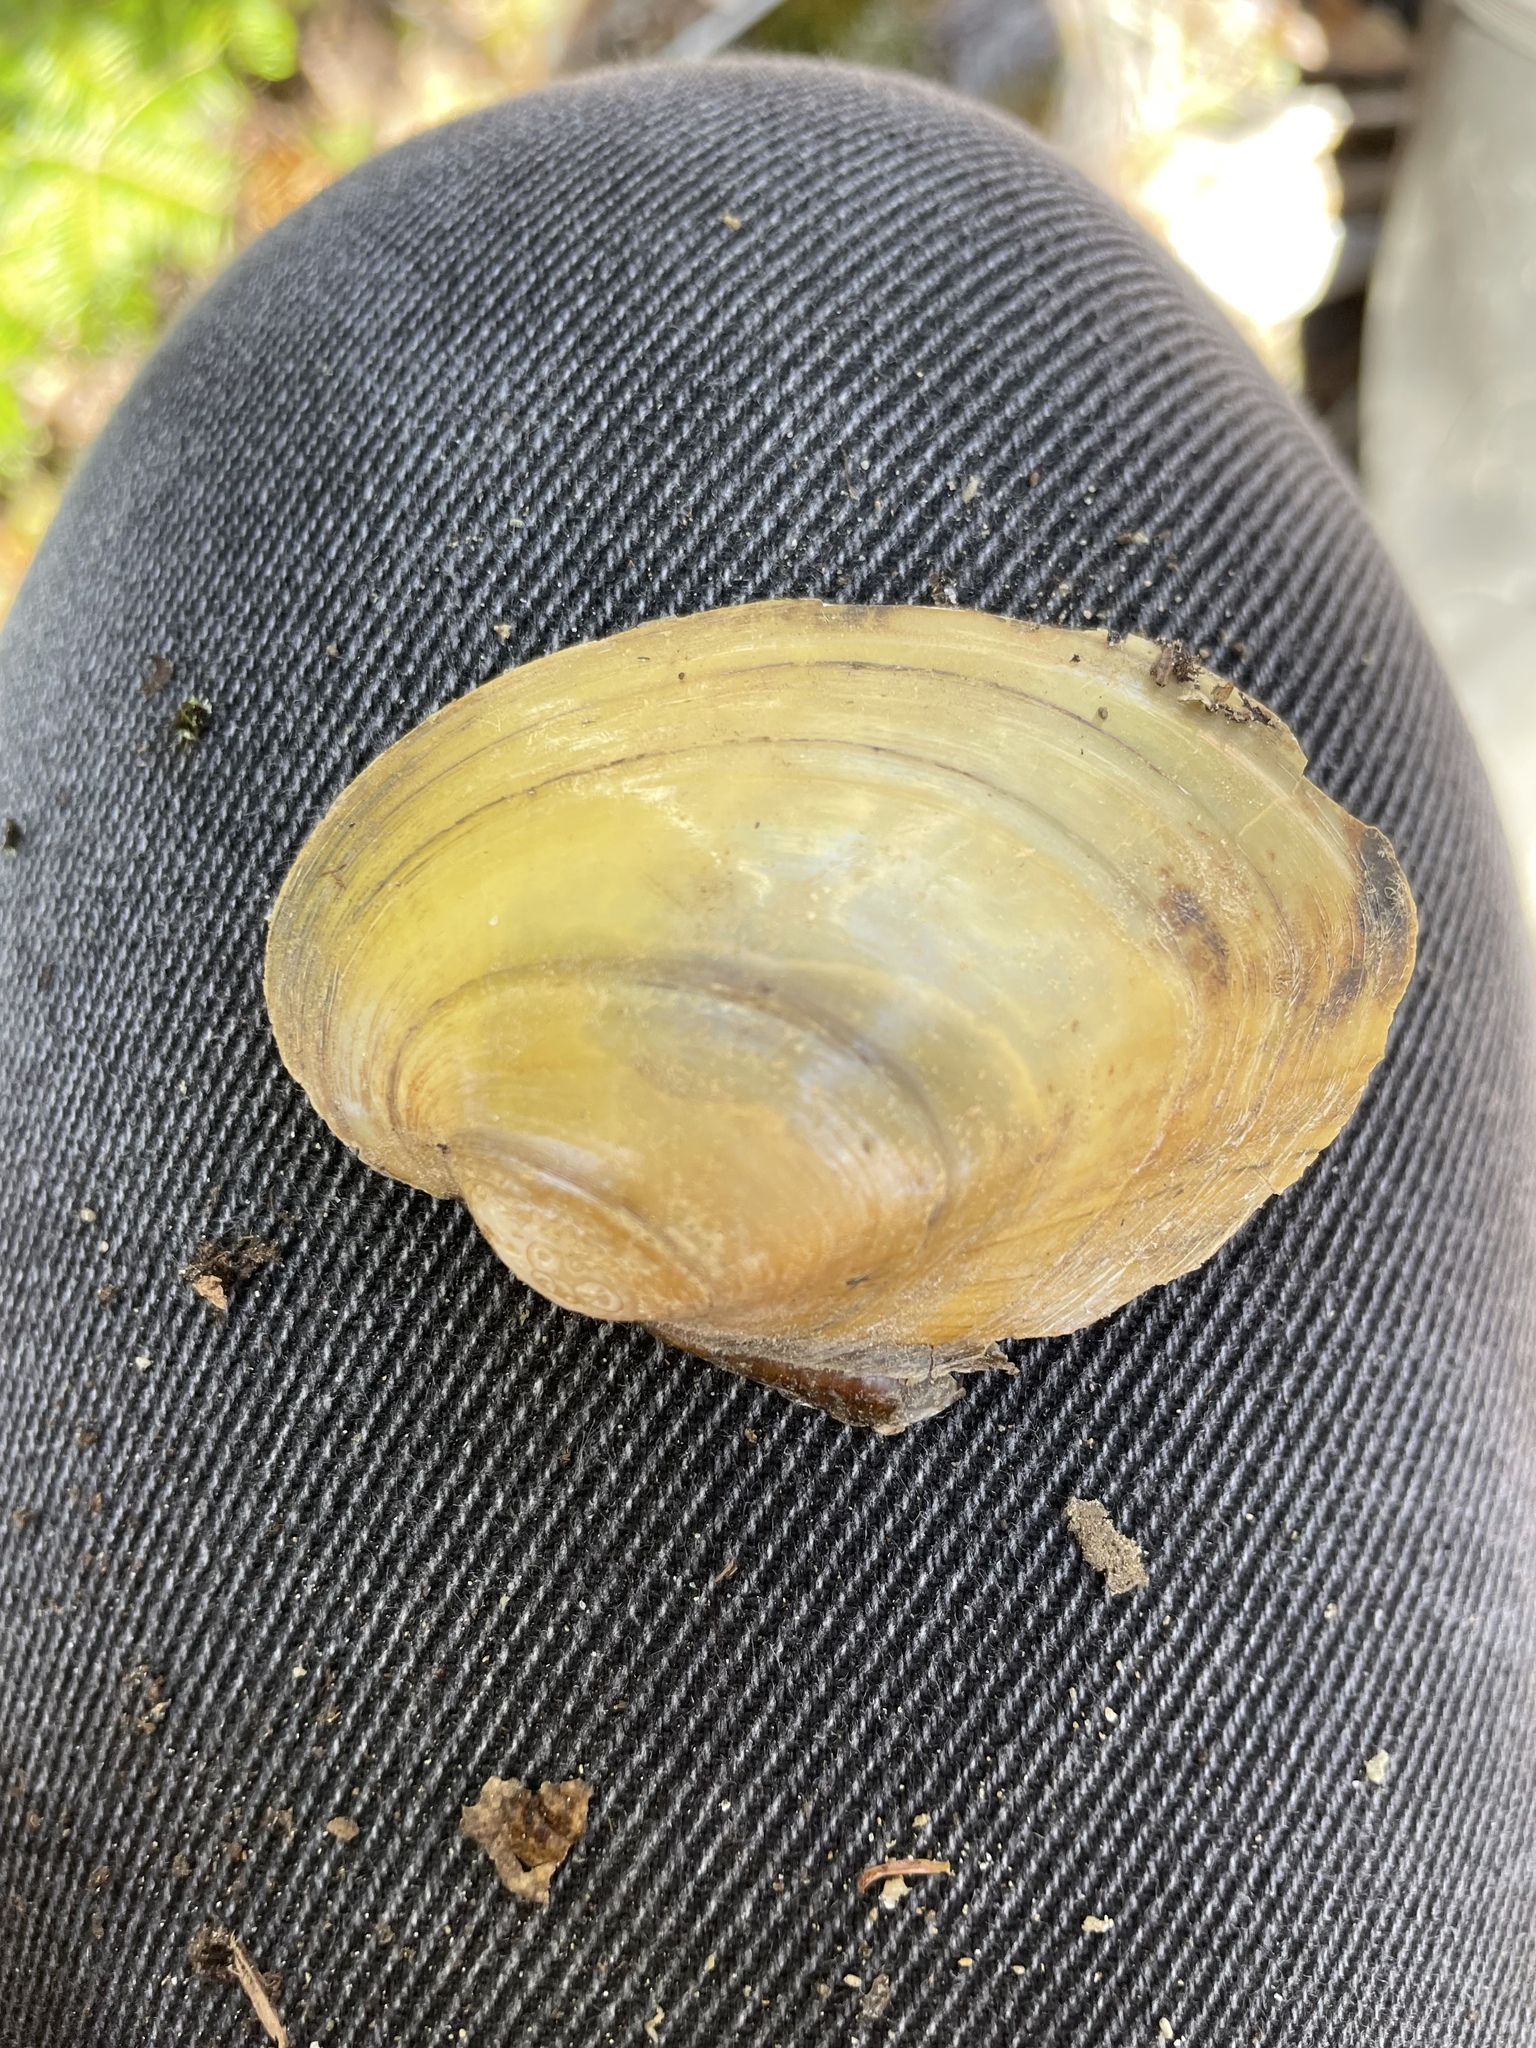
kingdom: Animalia
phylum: Mollusca
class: Bivalvia
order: Unionida
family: Unionidae
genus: Lampsilis
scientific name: Lampsilis cariosa
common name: Yellow lampmussel
